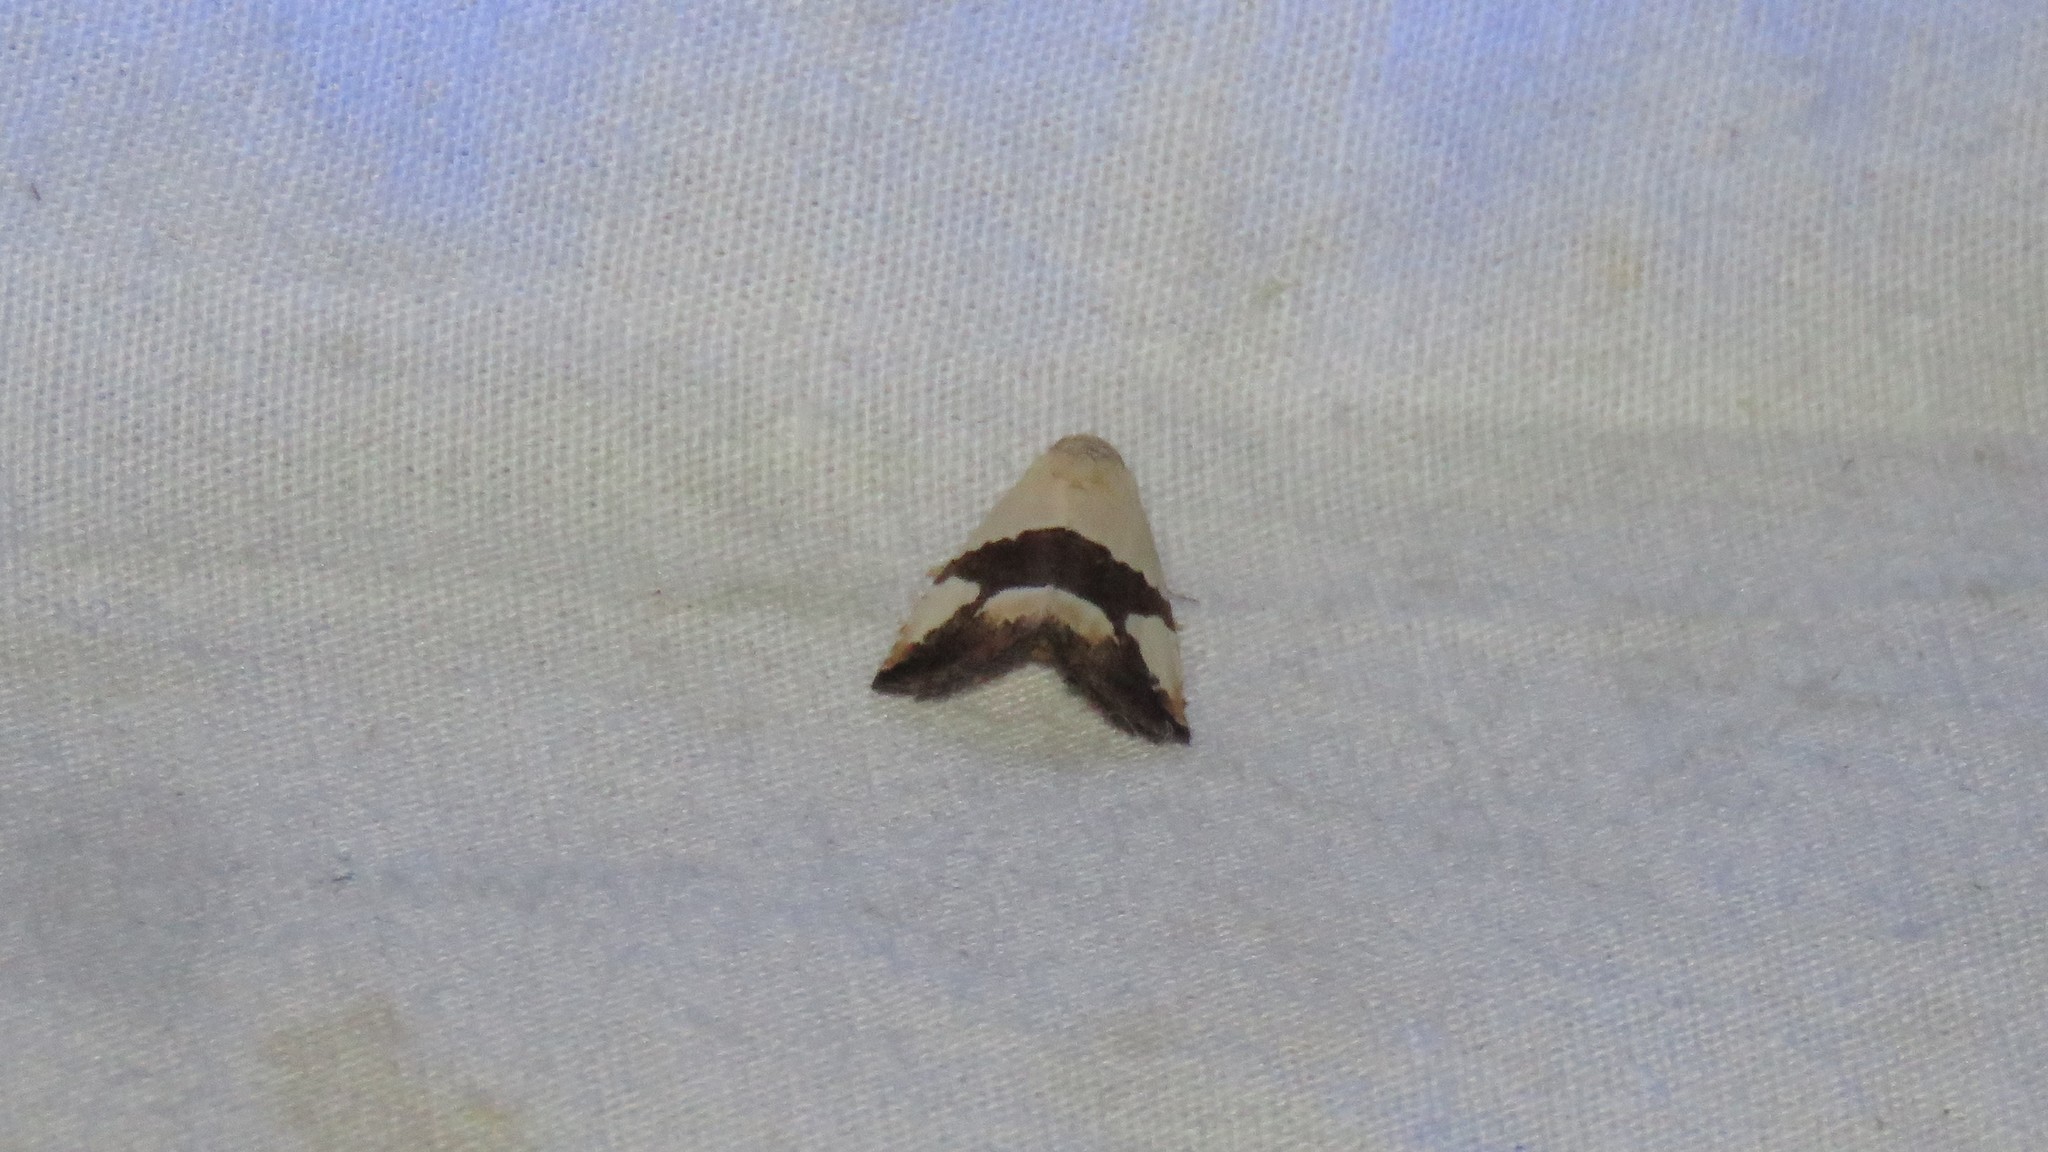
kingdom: Animalia
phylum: Arthropoda
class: Insecta
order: Lepidoptera
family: Noctuidae
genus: Maliattha
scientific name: Maliattha tegulata
